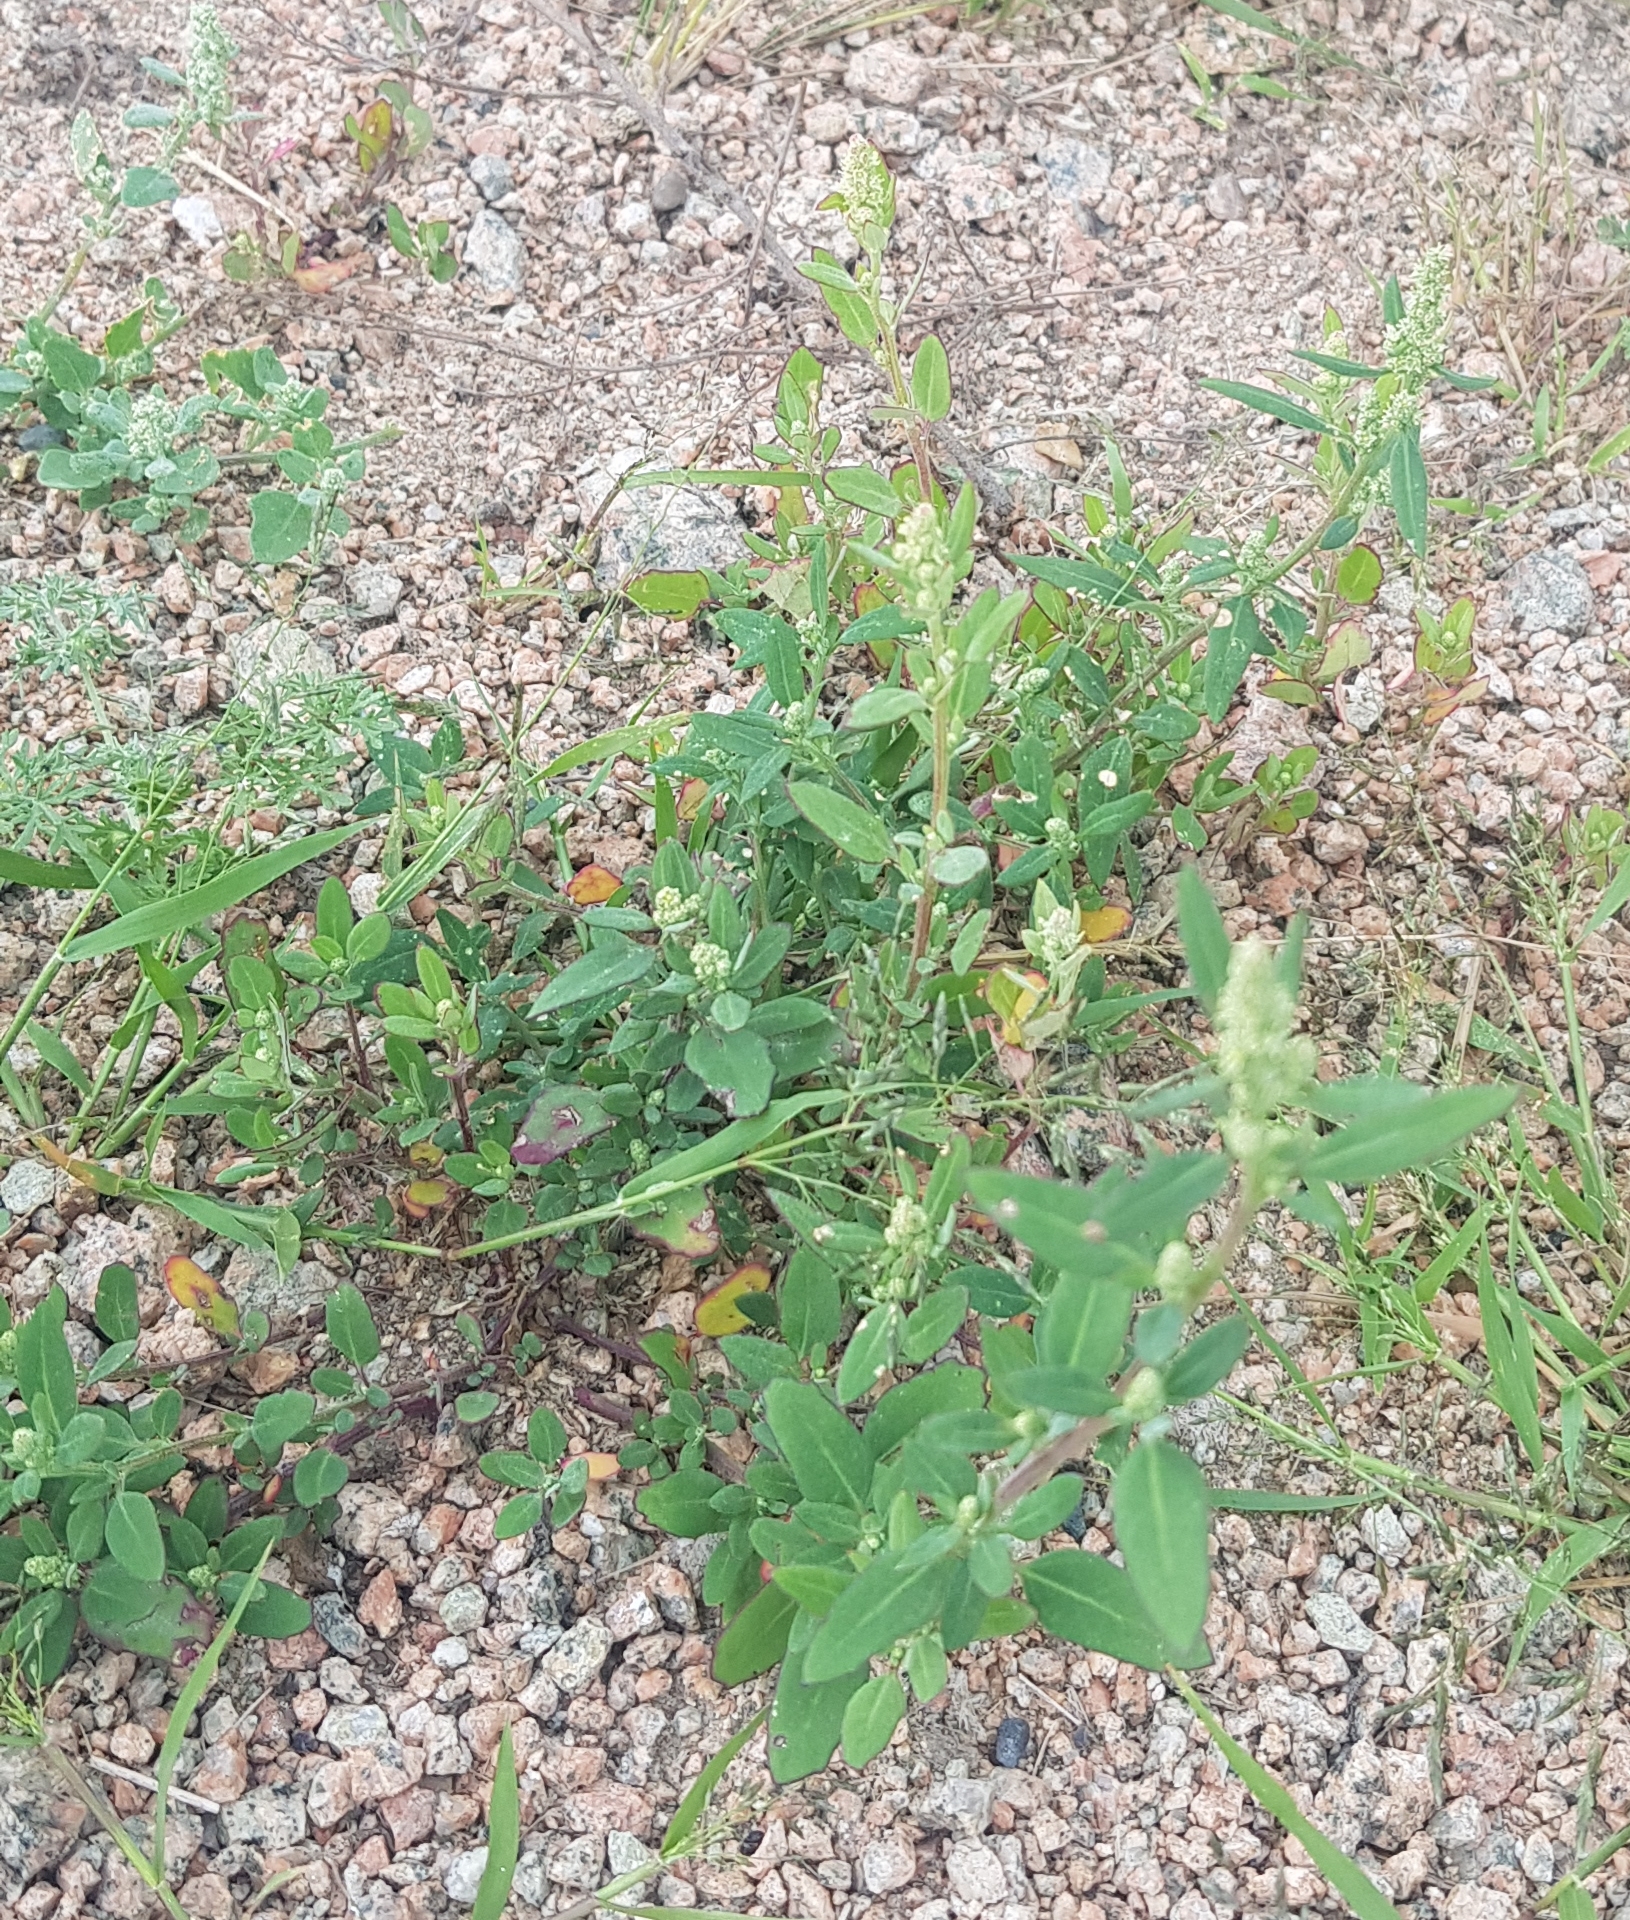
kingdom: Plantae
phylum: Tracheophyta
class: Magnoliopsida
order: Caryophyllales
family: Amaranthaceae
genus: Chenopodium
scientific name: Chenopodium acuminatum
